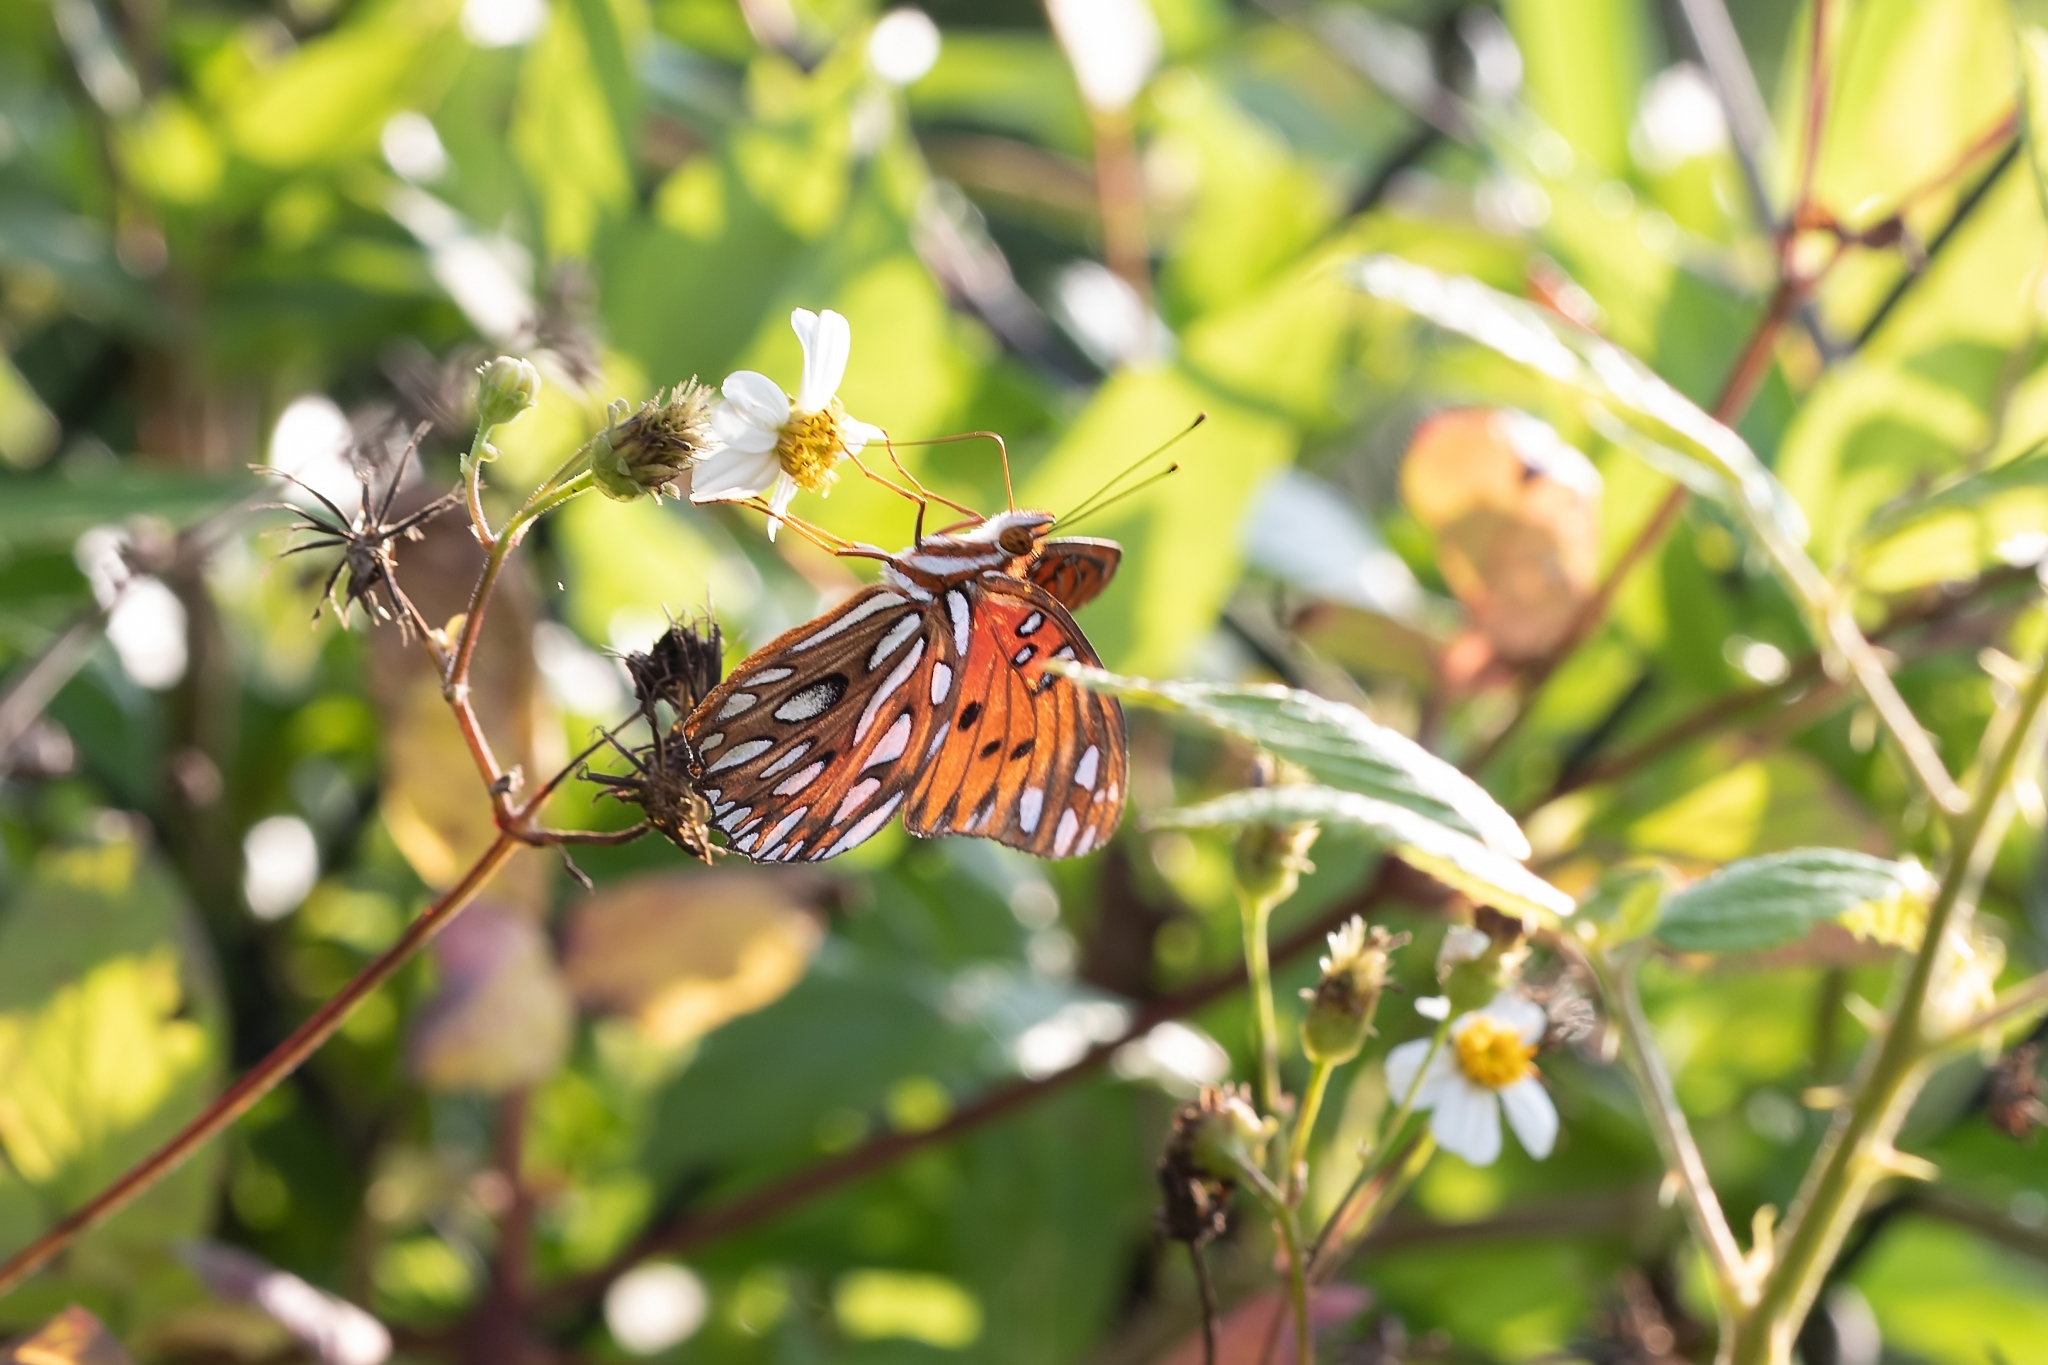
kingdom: Animalia
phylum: Arthropoda
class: Insecta
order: Lepidoptera
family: Nymphalidae
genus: Dione
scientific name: Dione vanillae
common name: Gulf fritillary
